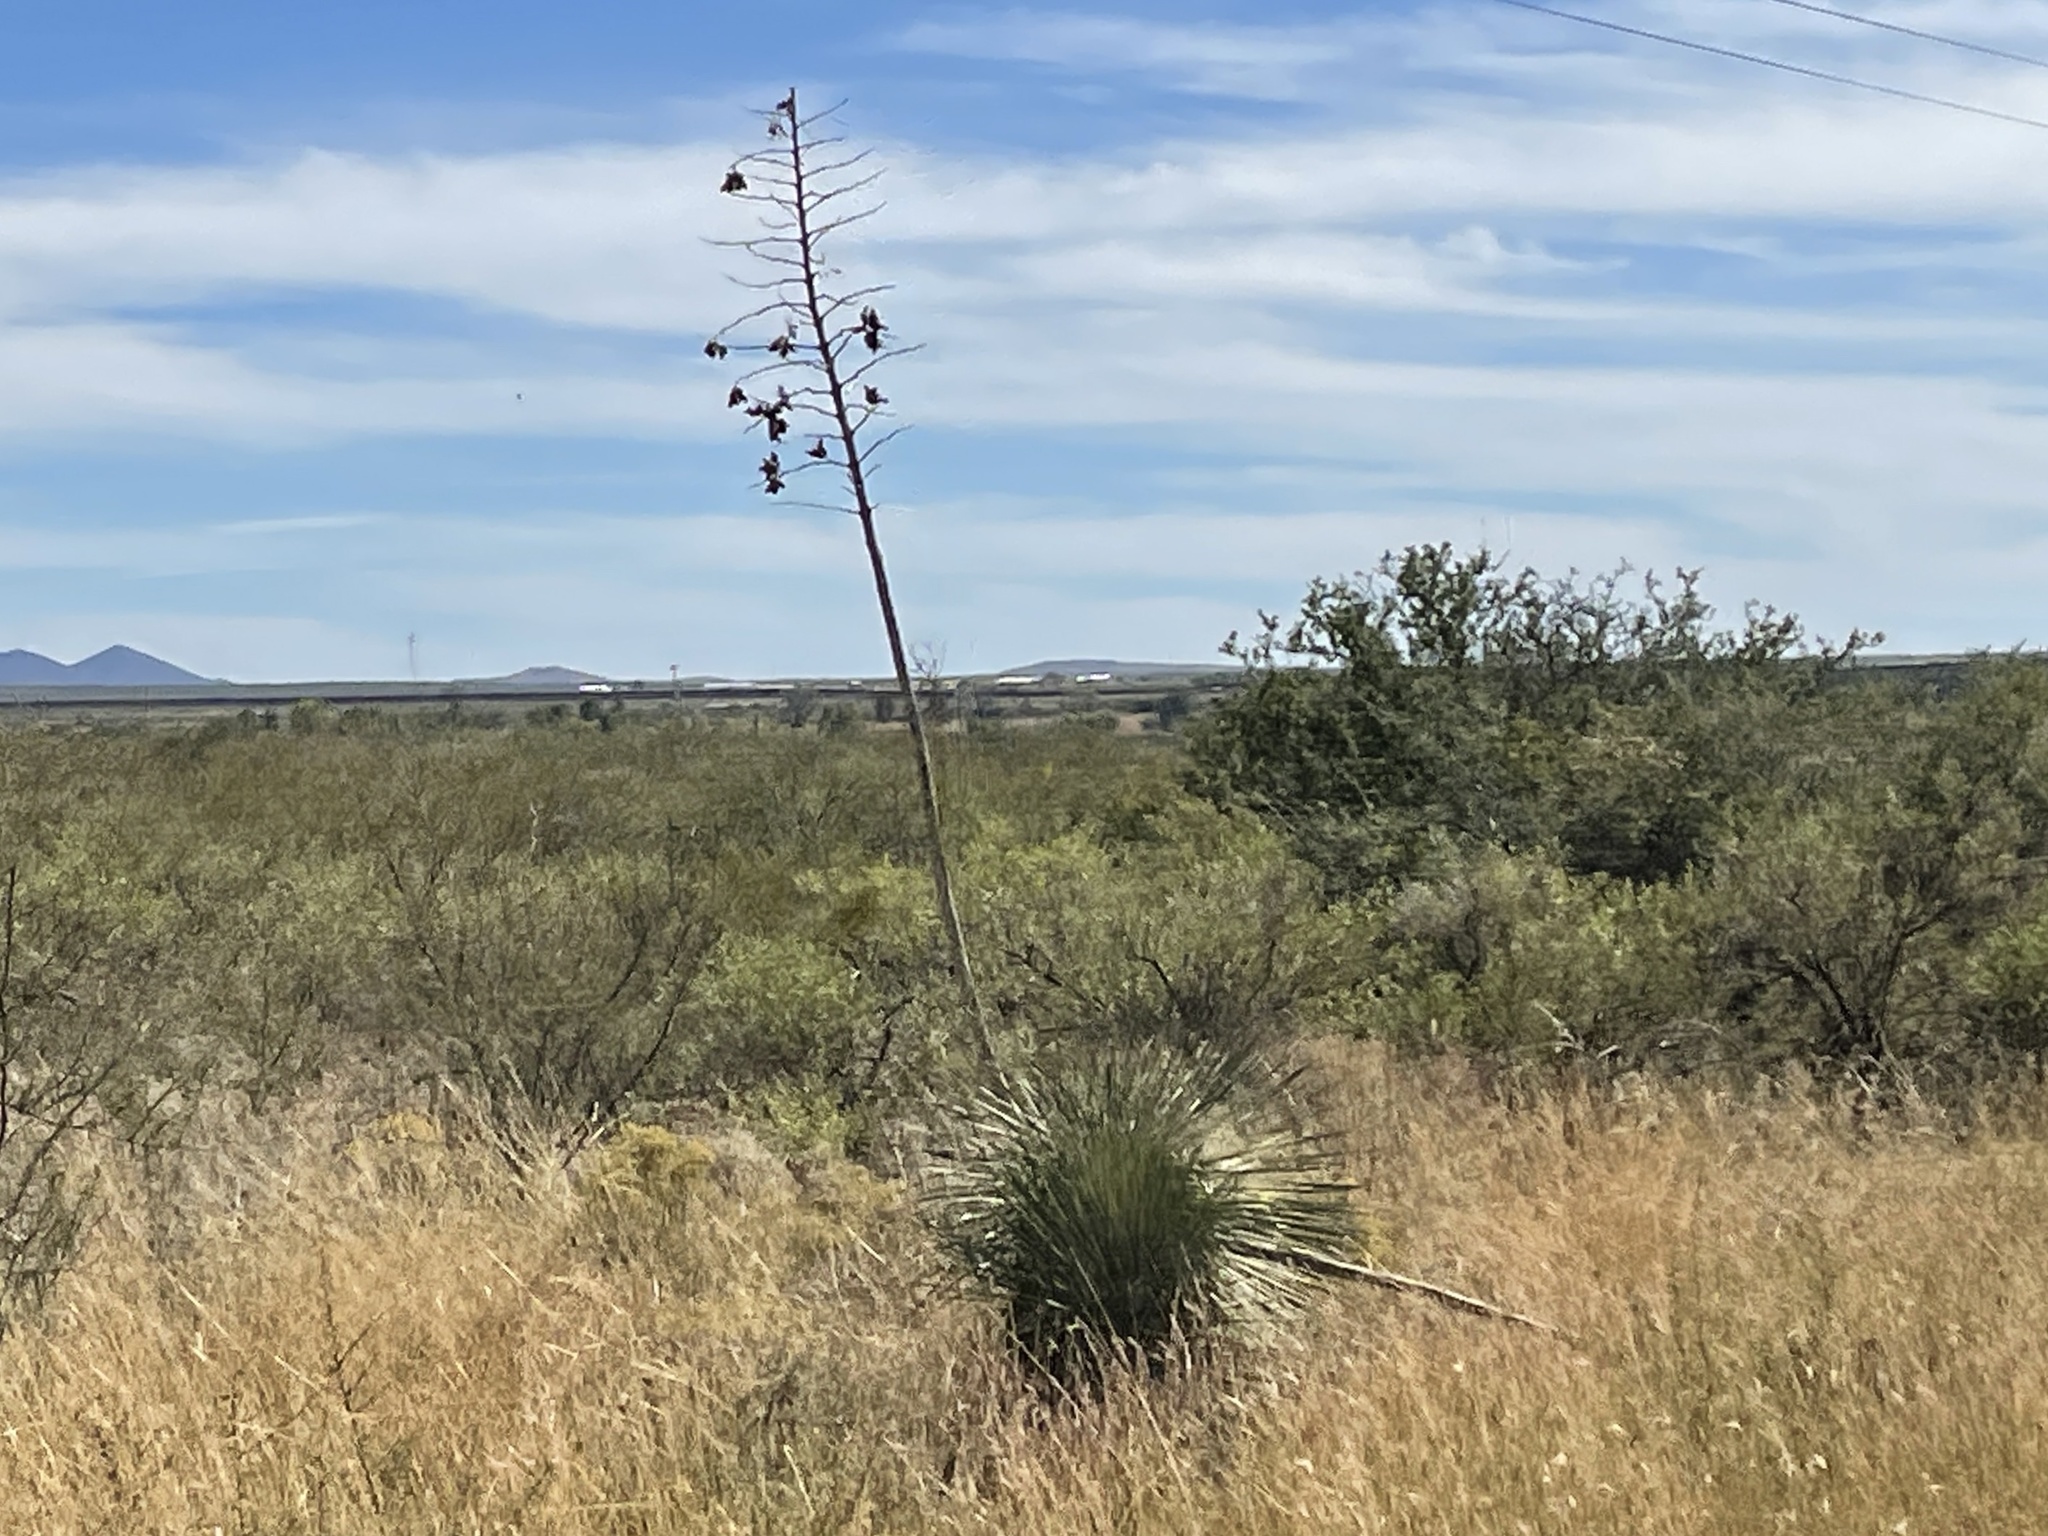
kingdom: Plantae
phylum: Tracheophyta
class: Liliopsida
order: Asparagales
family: Asparagaceae
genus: Yucca
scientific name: Yucca elata
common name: Palmella
